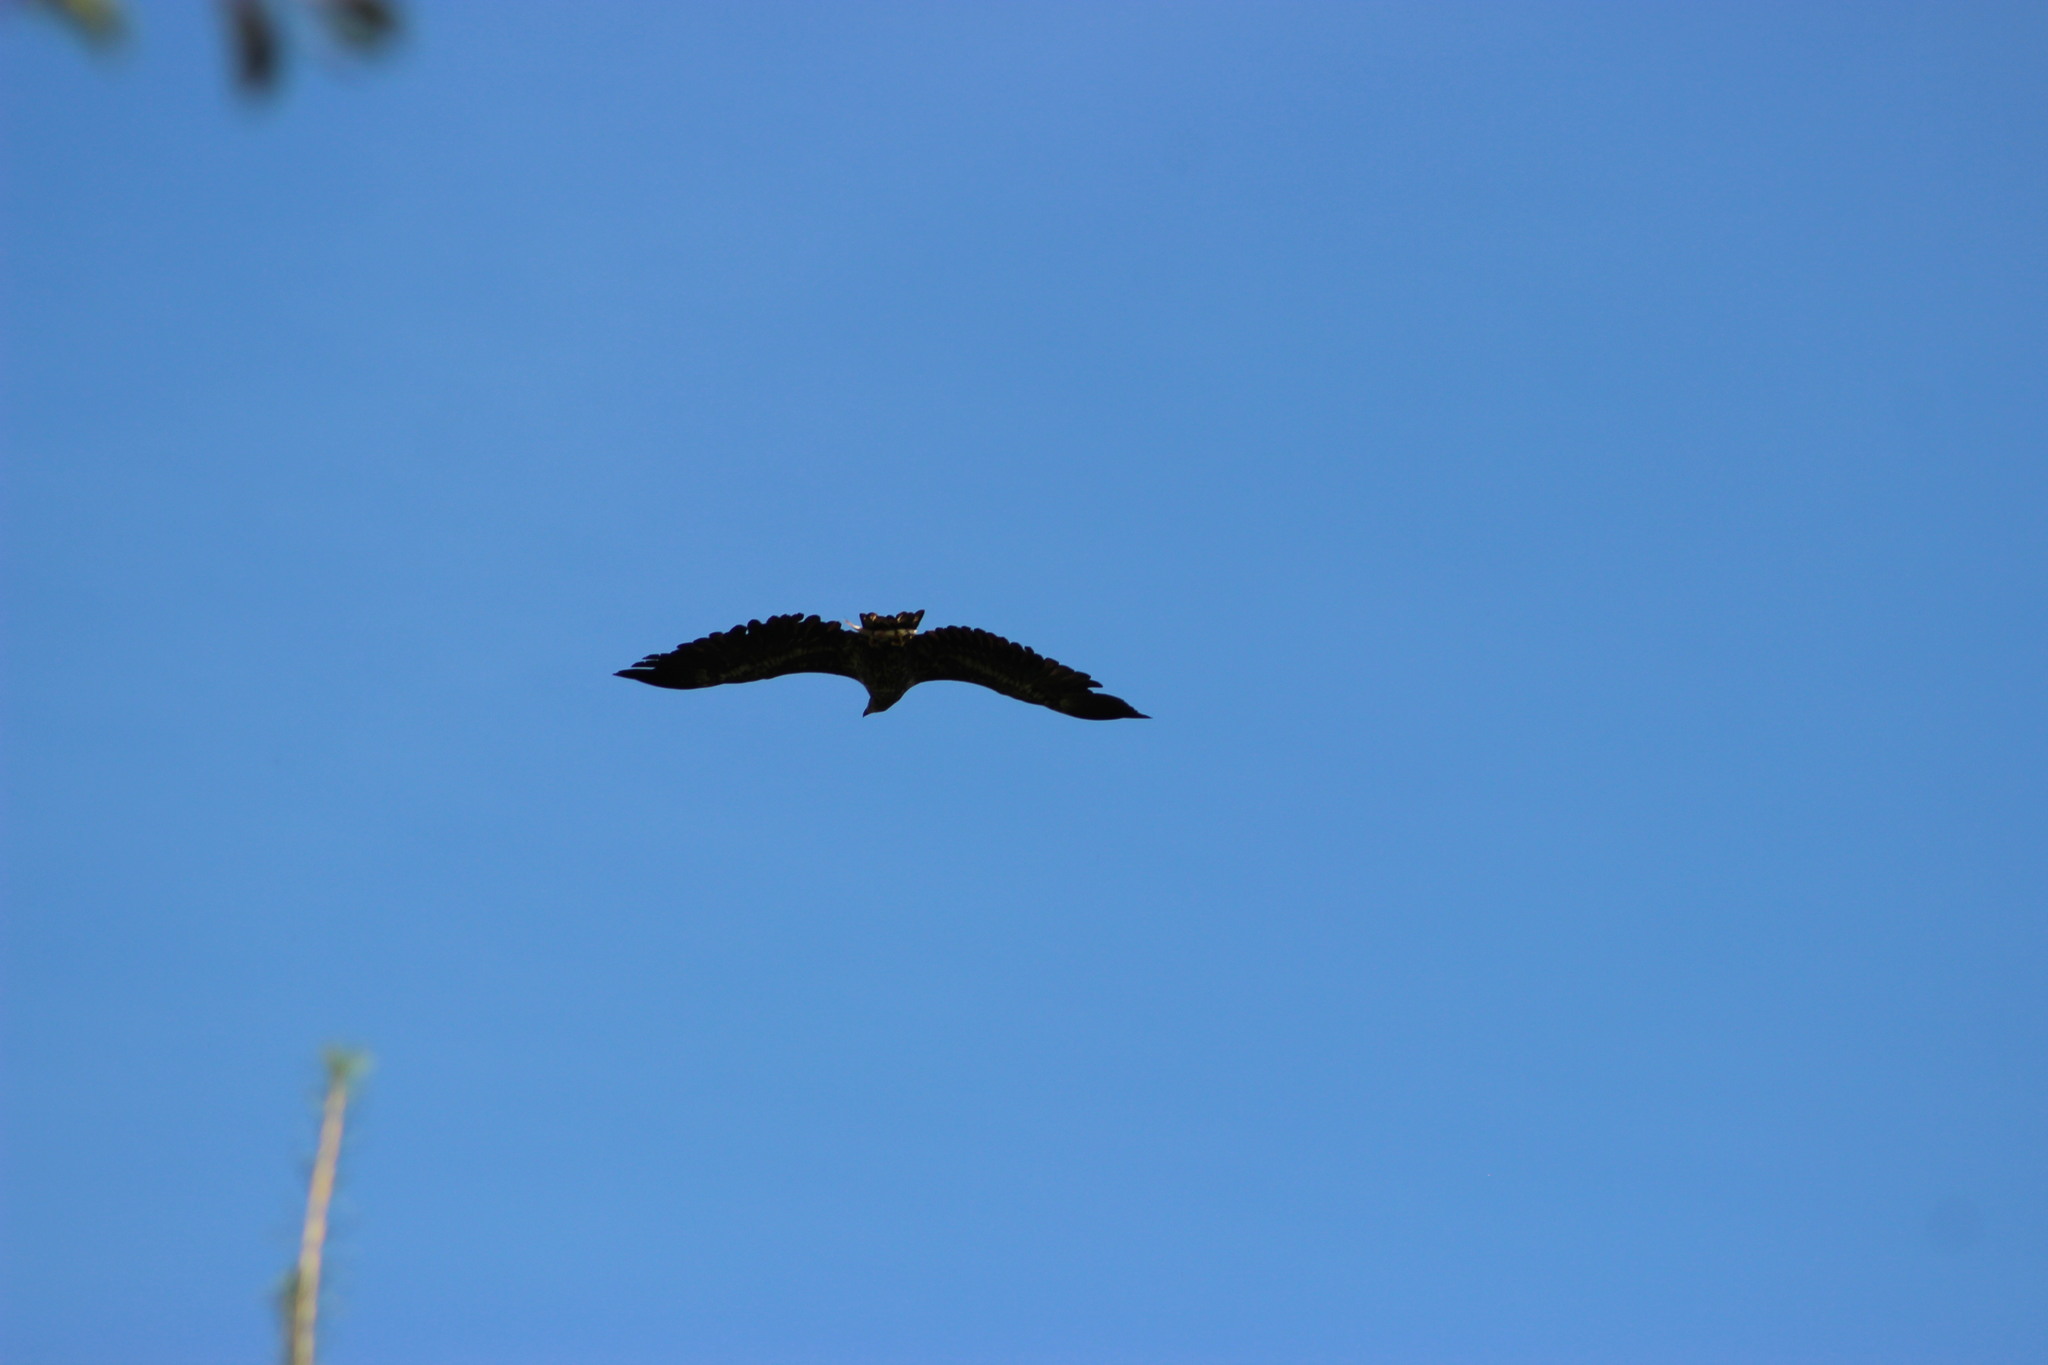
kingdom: Animalia
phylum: Chordata
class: Aves
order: Accipitriformes
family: Accipitridae
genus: Haliaeetus
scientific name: Haliaeetus albicilla
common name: White-tailed eagle
